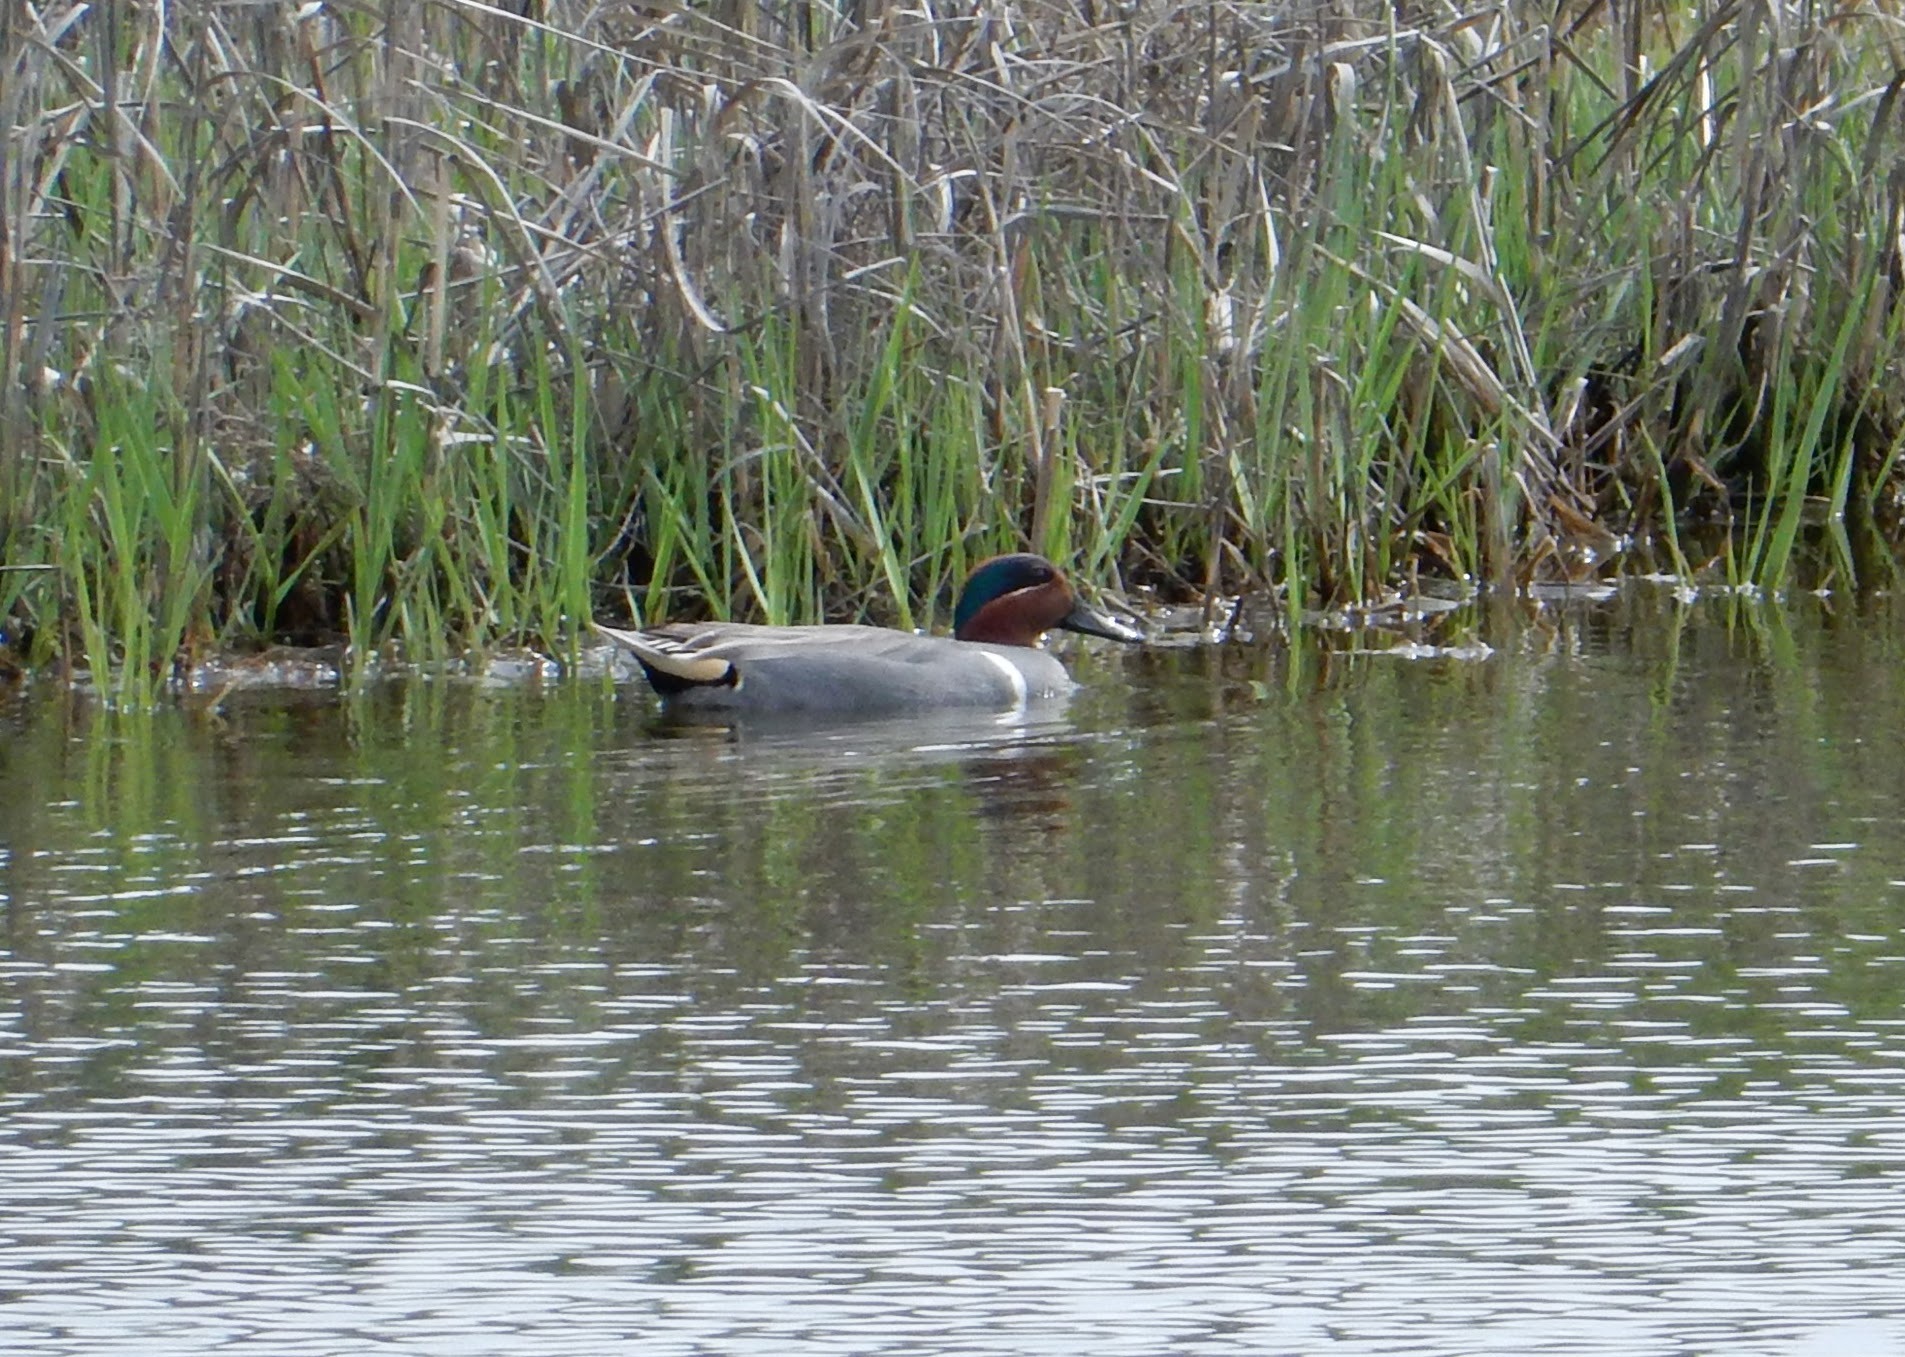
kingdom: Animalia
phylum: Chordata
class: Aves
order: Anseriformes
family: Anatidae
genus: Anas
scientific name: Anas crecca
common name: Eurasian teal
